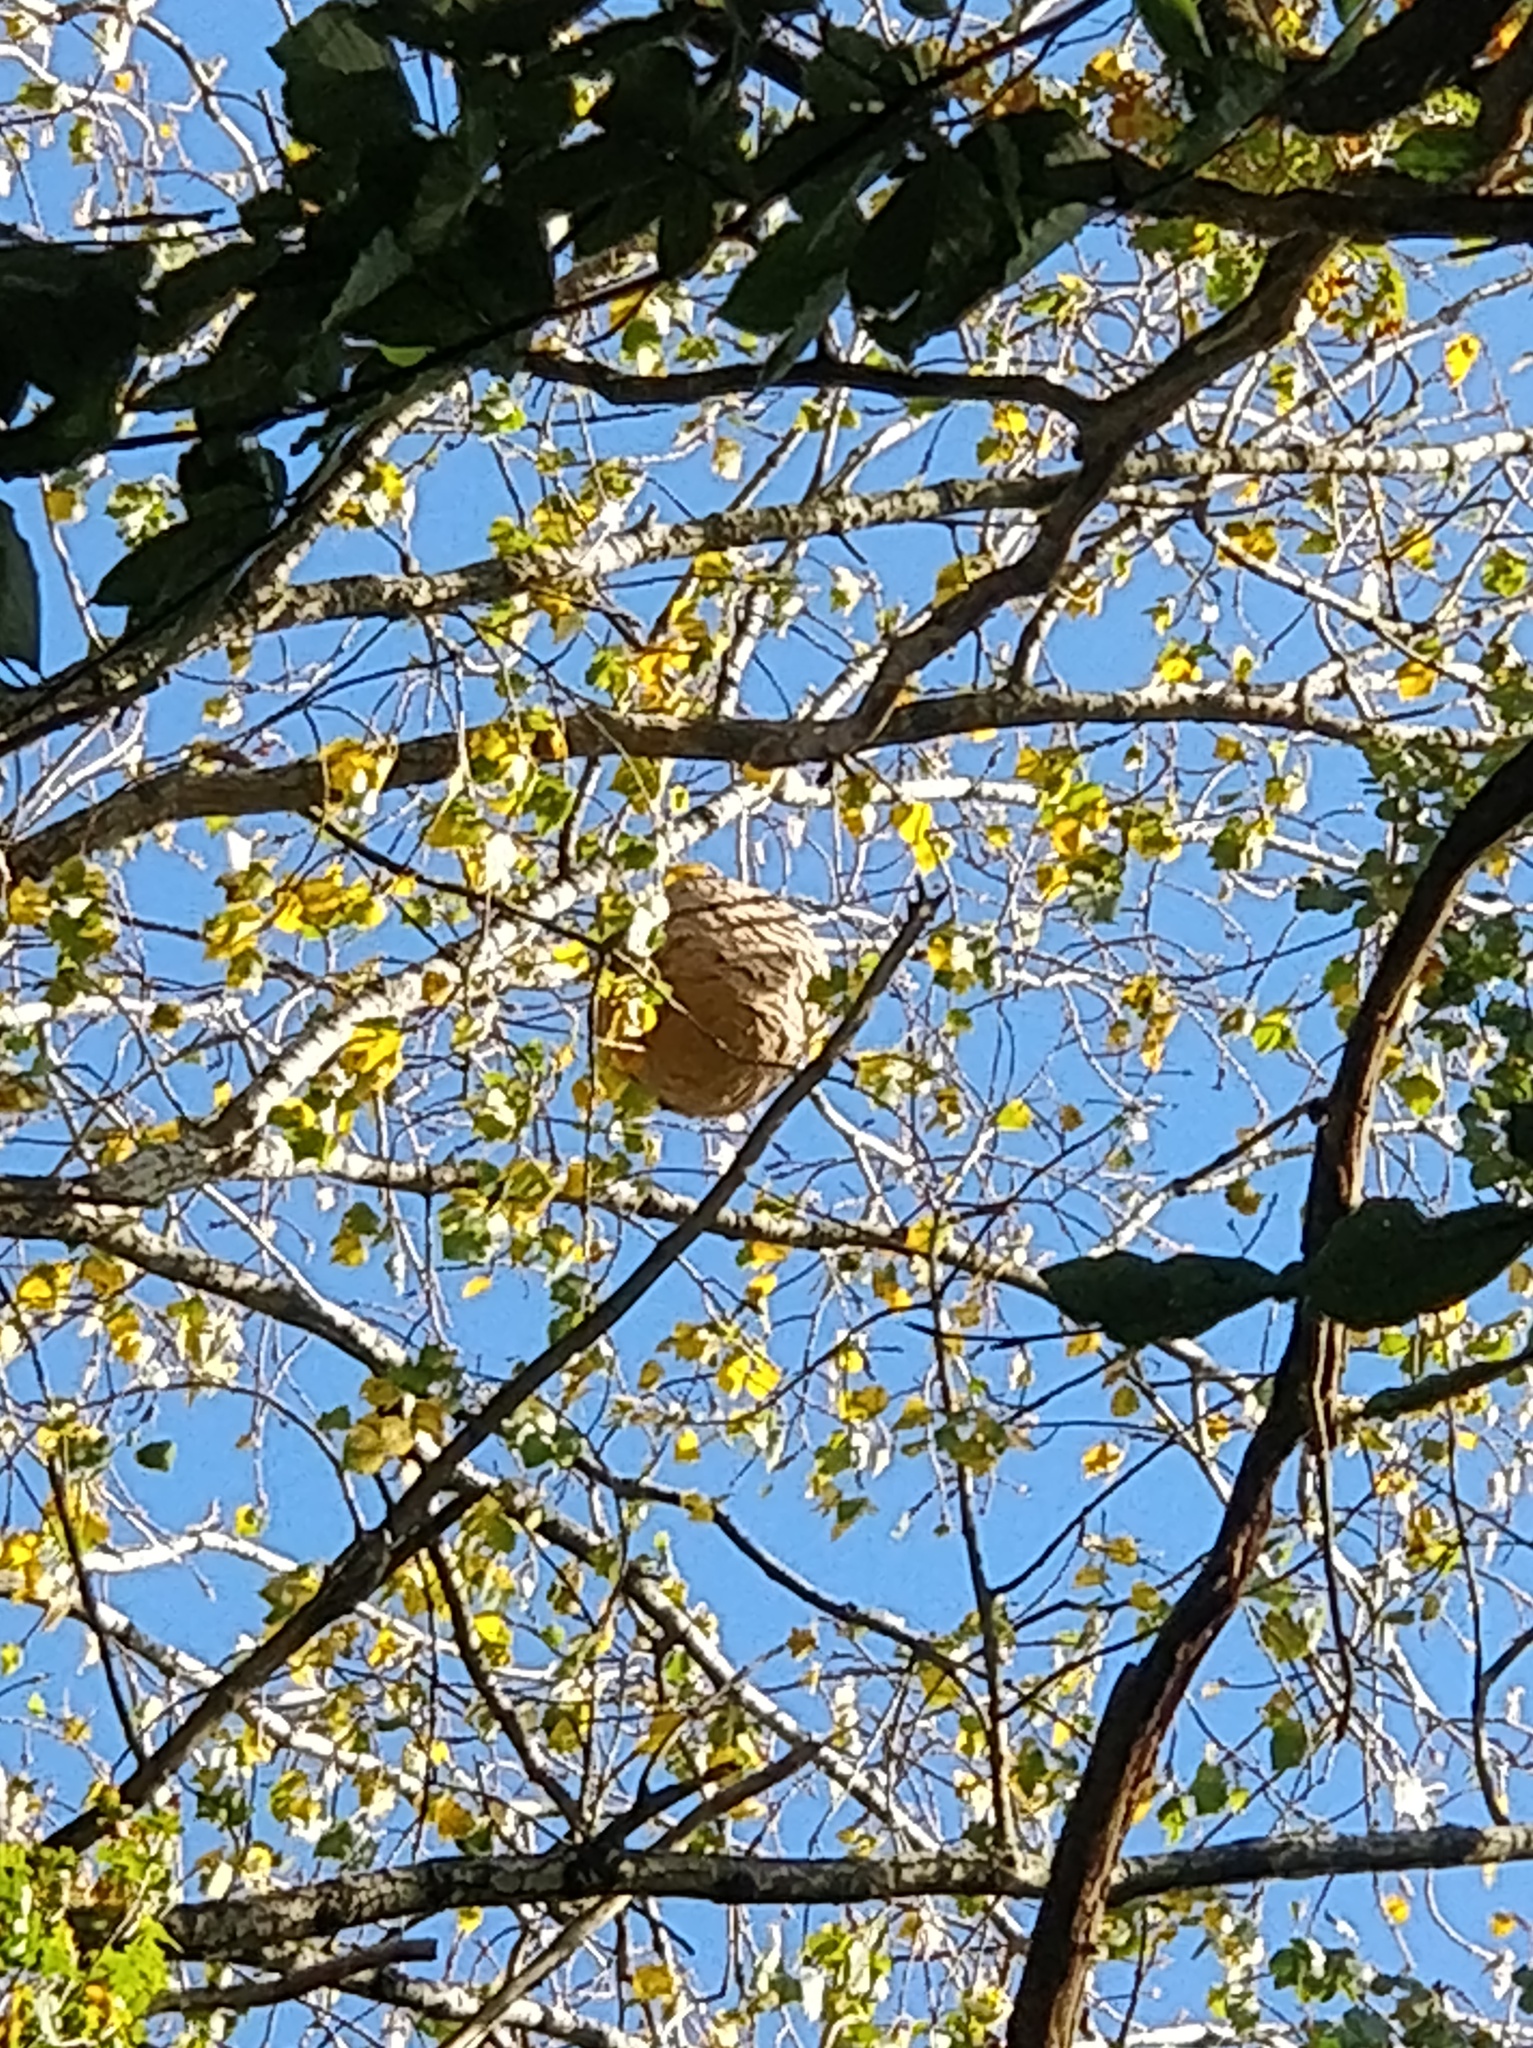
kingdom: Animalia
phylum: Arthropoda
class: Insecta
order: Hymenoptera
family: Vespidae
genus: Vespa
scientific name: Vespa velutina
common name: Asian hornet
